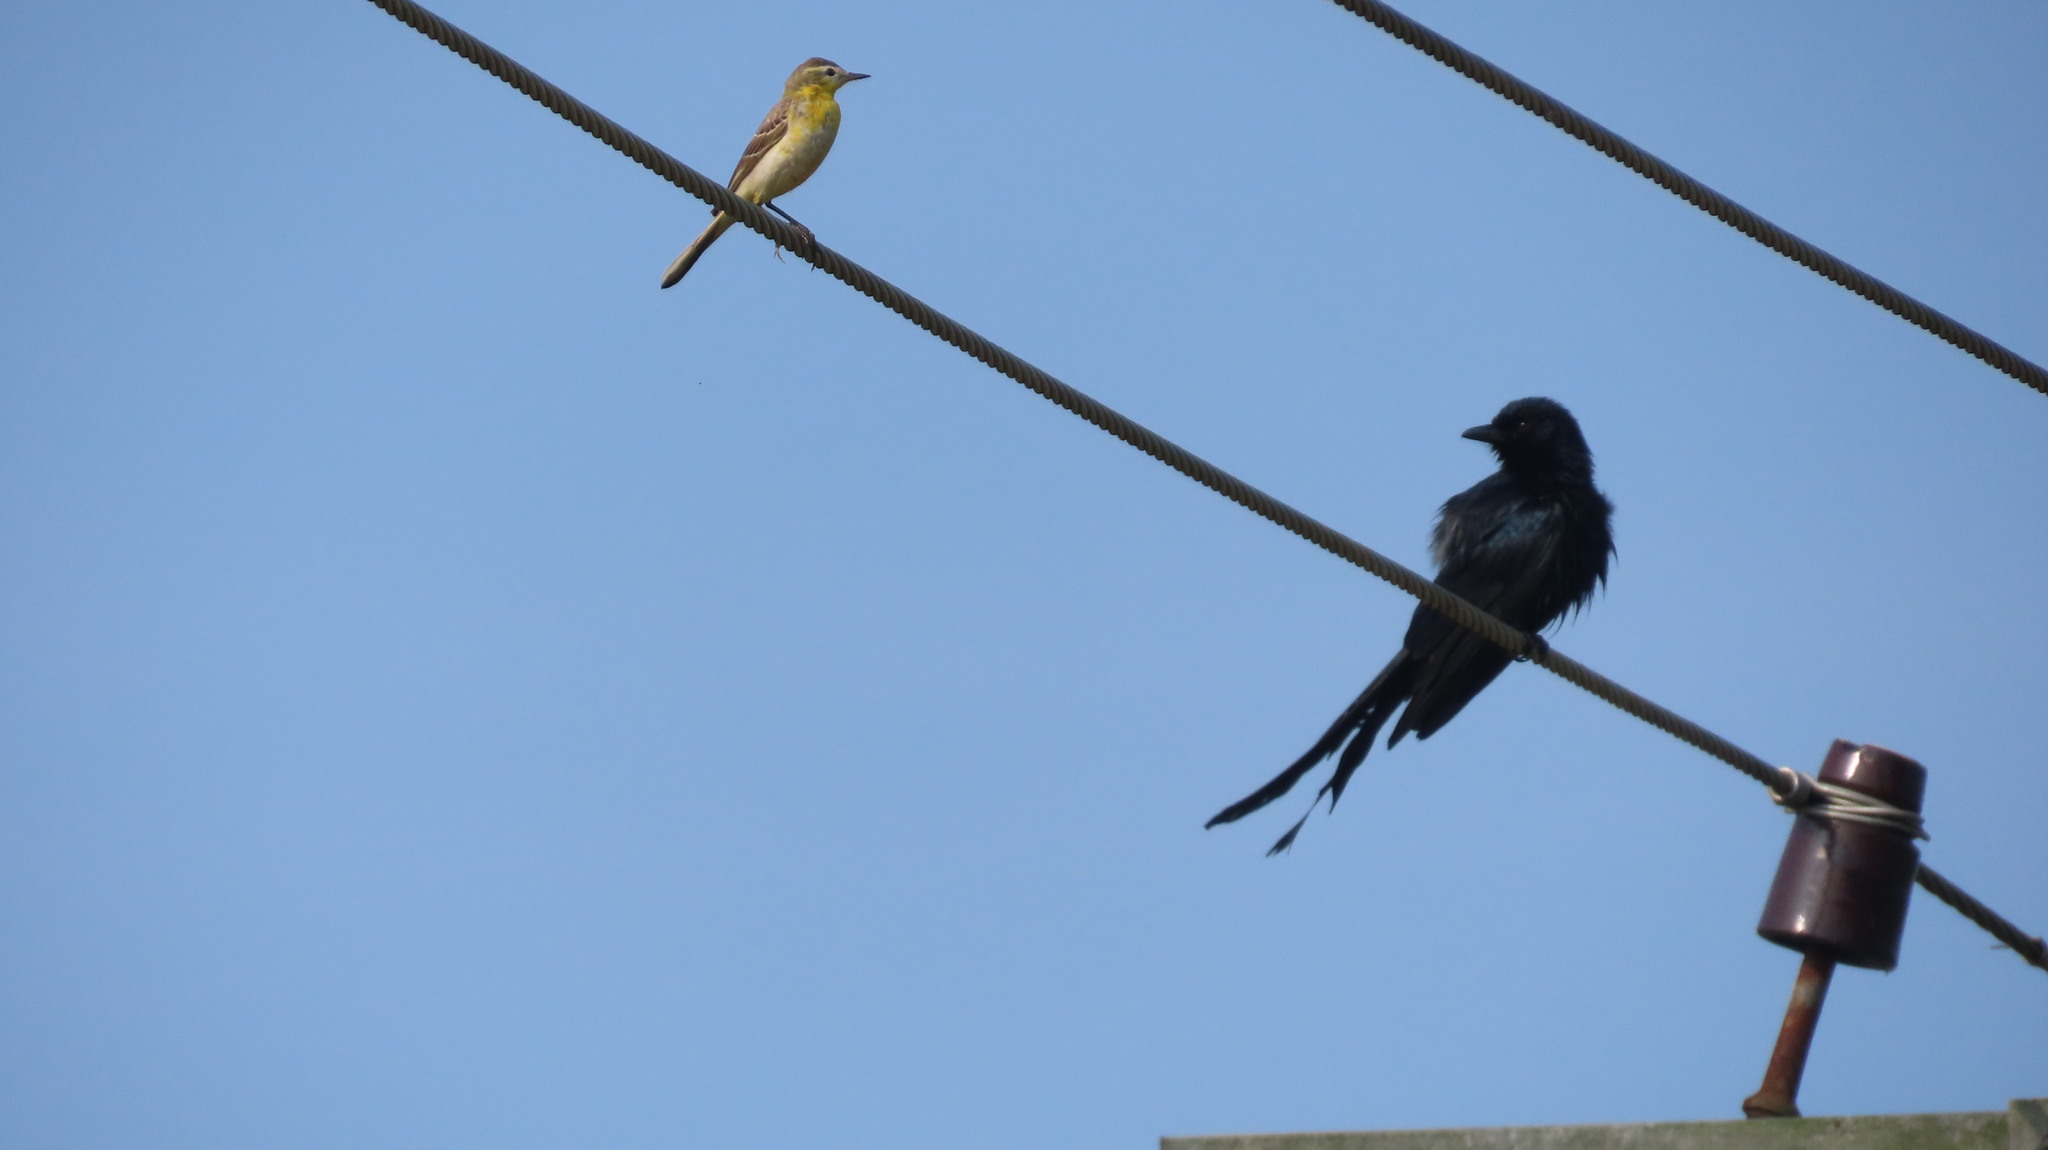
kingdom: Animalia
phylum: Chordata
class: Aves
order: Passeriformes
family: Dicruridae
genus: Dicrurus
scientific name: Dicrurus macrocercus
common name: Black drongo
